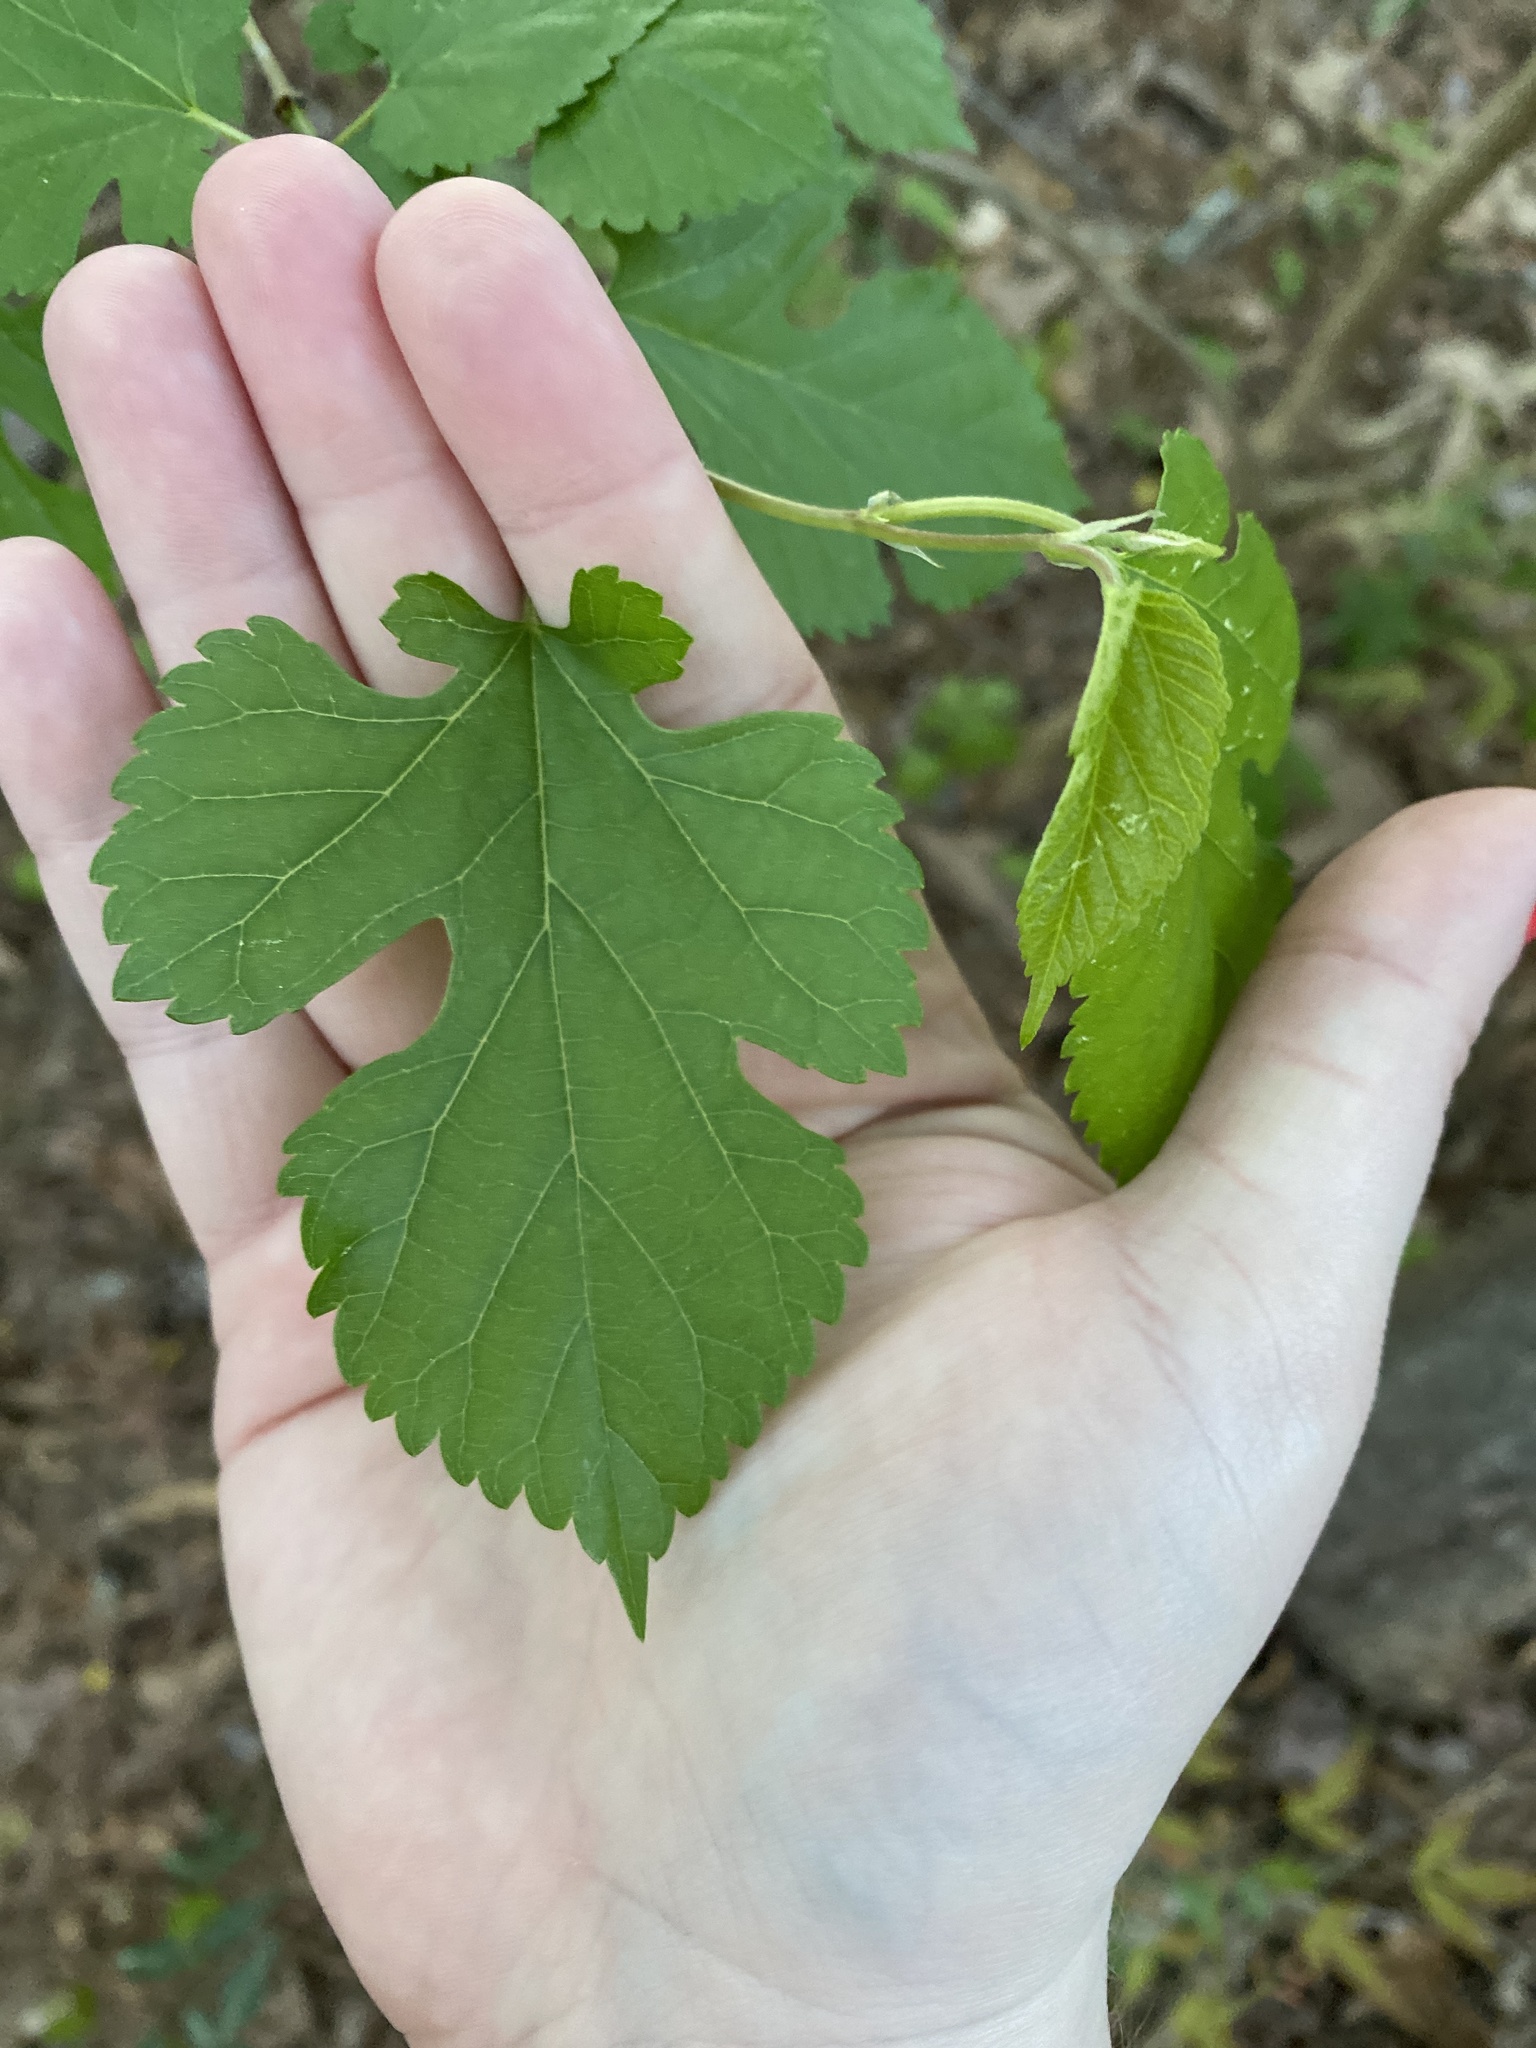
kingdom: Plantae
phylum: Tracheophyta
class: Magnoliopsida
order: Rosales
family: Moraceae
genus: Morus
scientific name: Morus alba
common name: White mulberry
